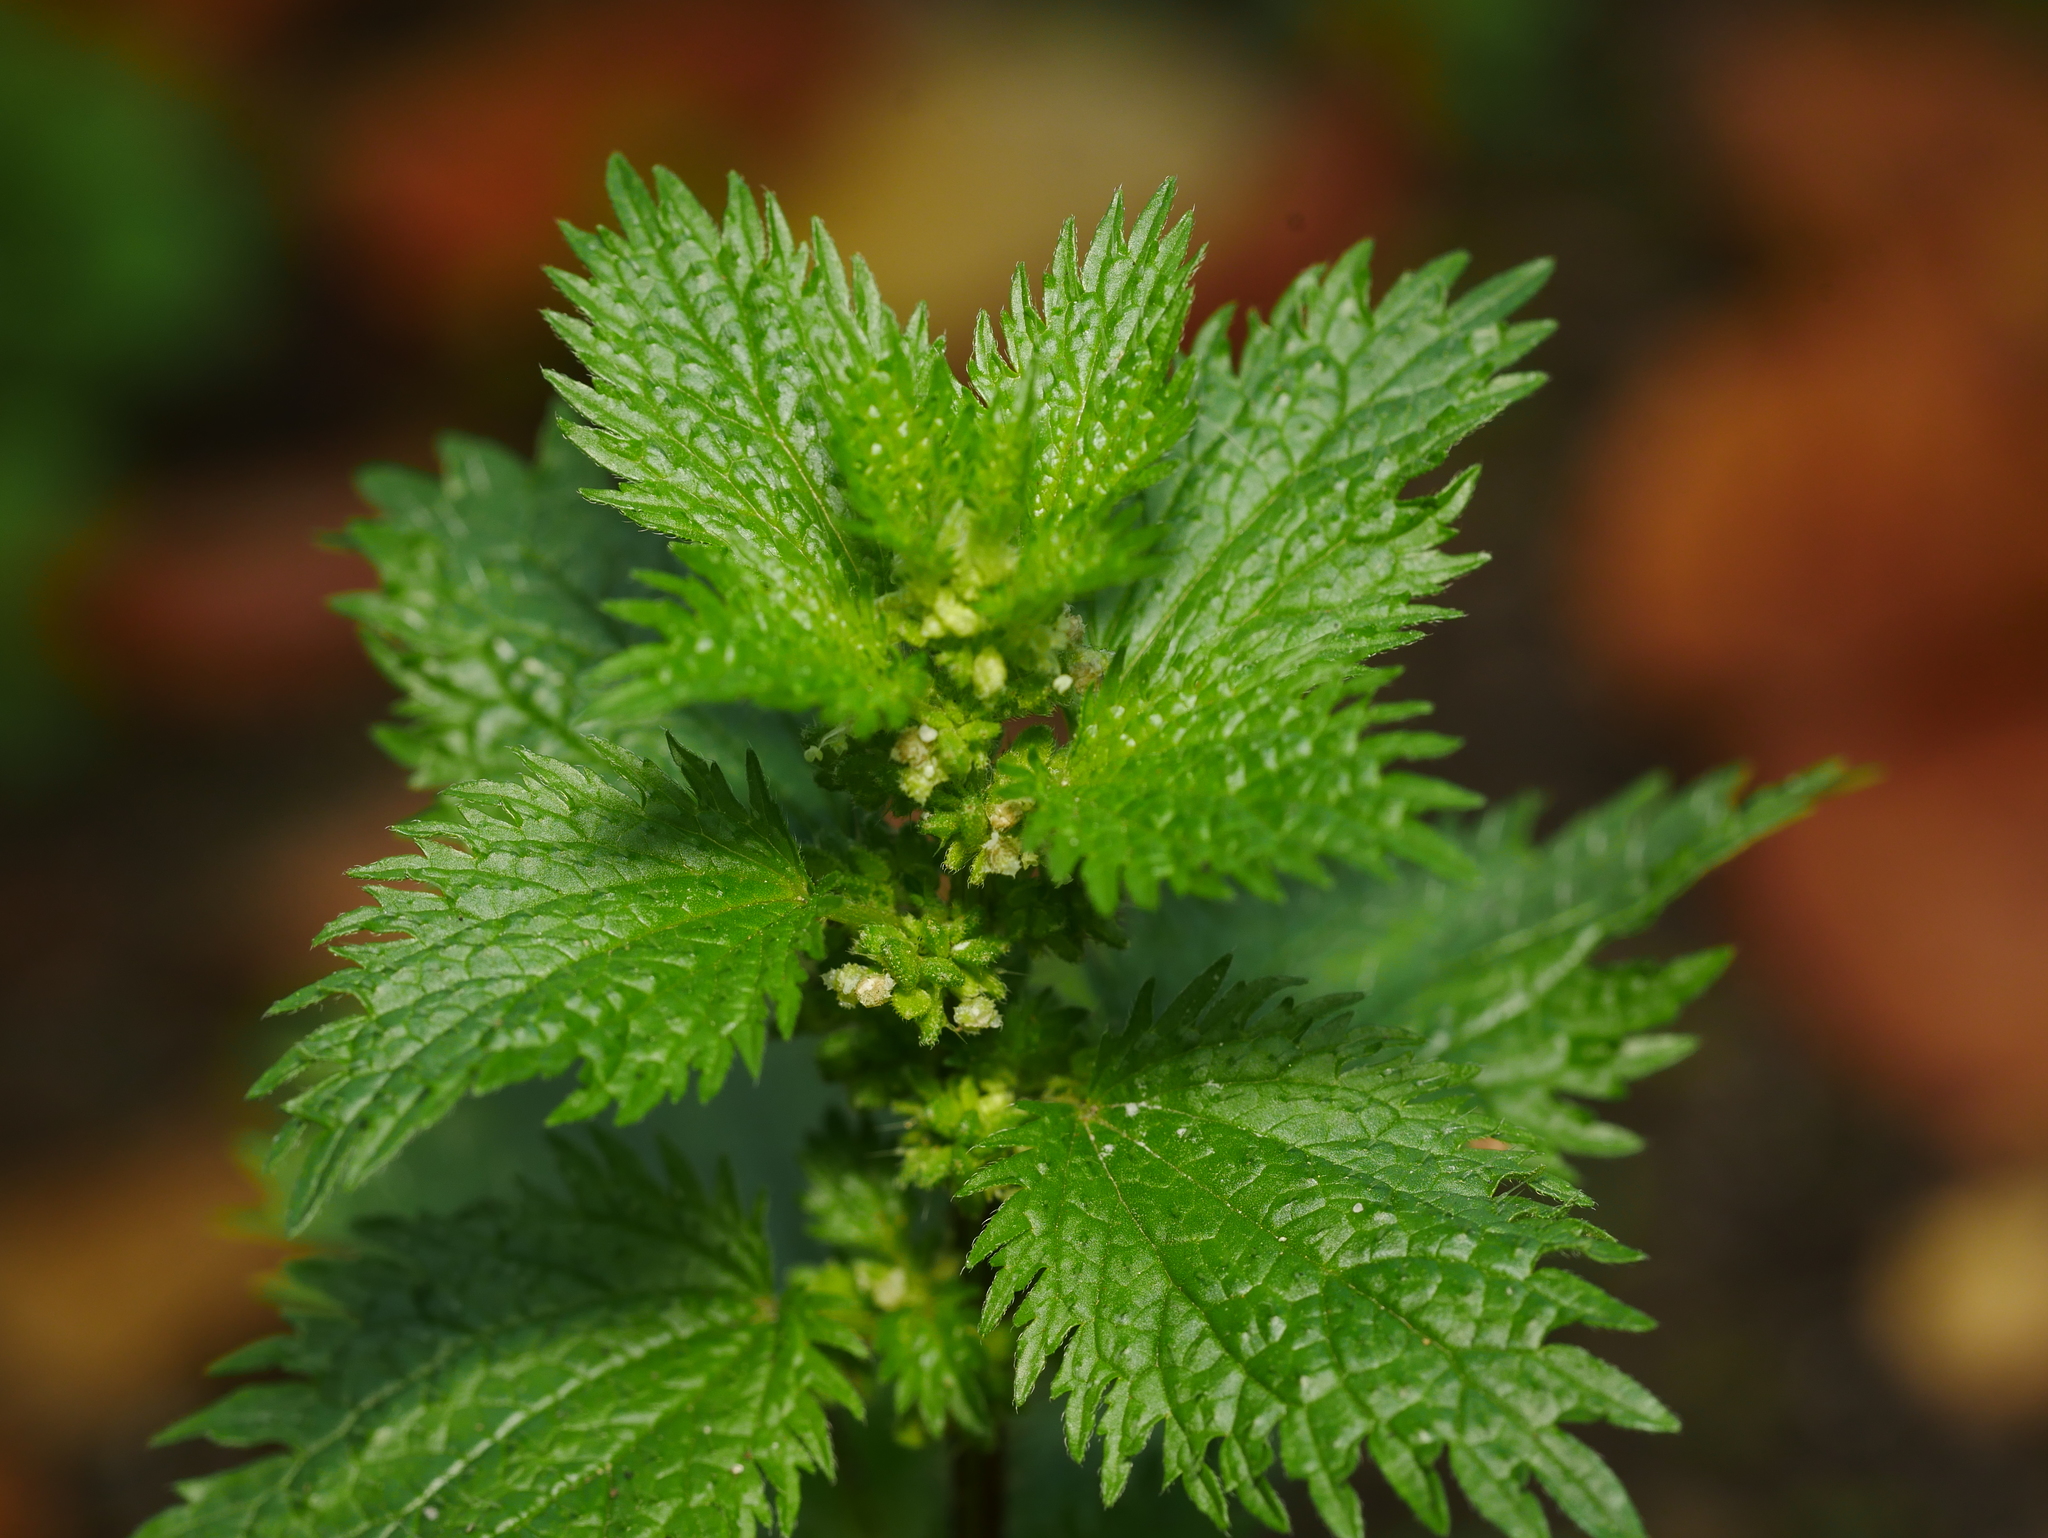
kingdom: Plantae
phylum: Tracheophyta
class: Magnoliopsida
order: Rosales
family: Urticaceae
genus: Urtica
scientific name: Urtica urens
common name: Dwarf nettle
